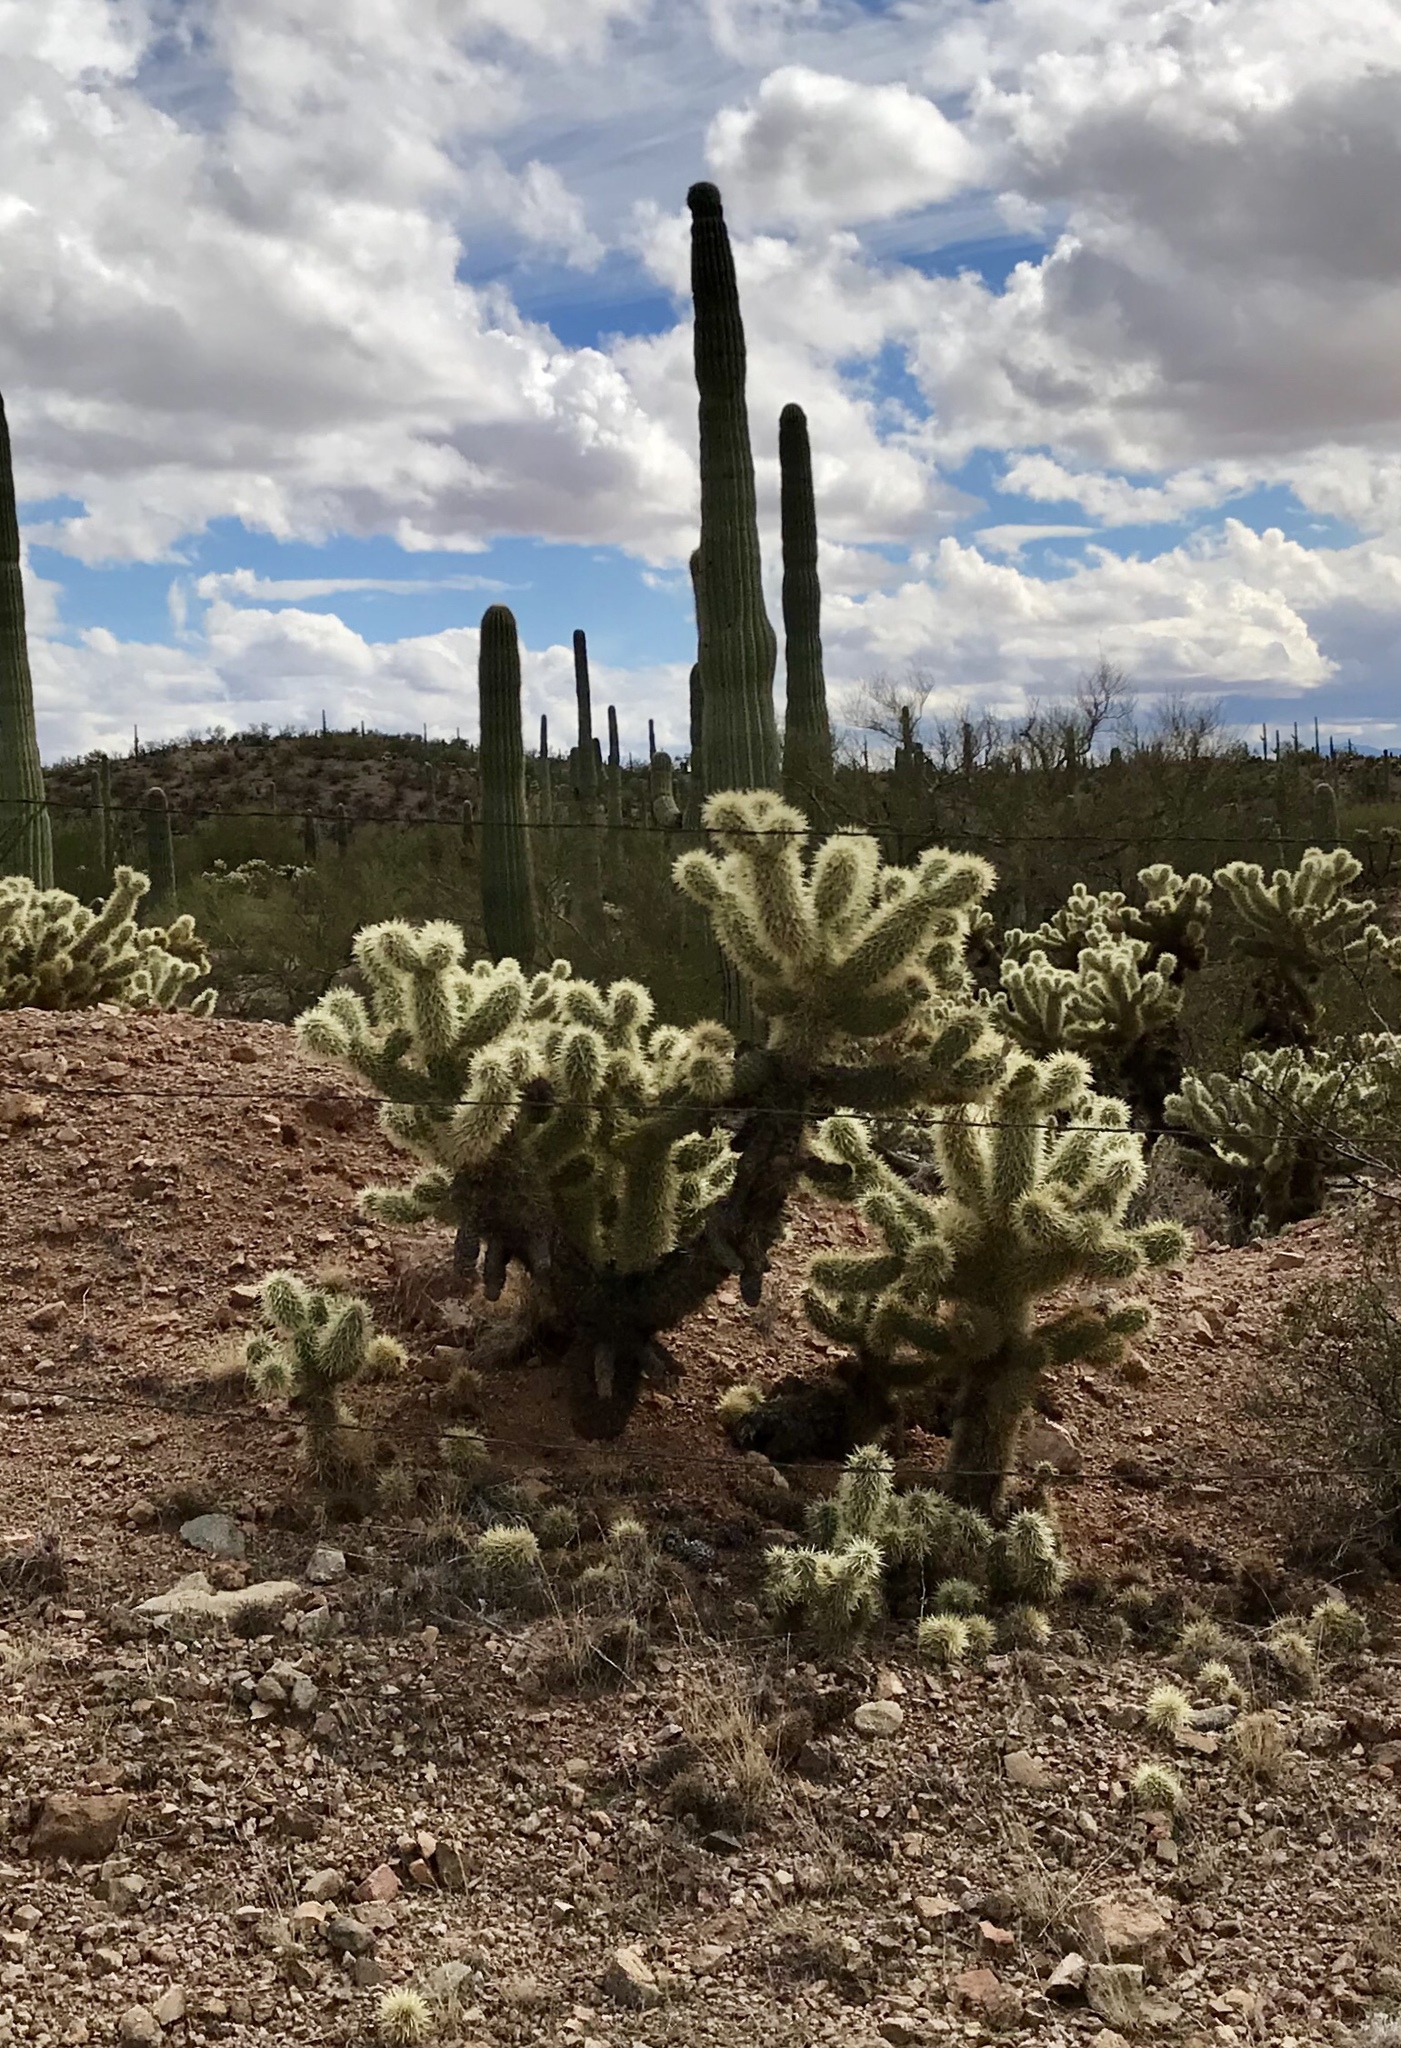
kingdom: Plantae
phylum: Tracheophyta
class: Magnoliopsida
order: Caryophyllales
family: Cactaceae
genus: Cylindropuntia
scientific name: Cylindropuntia fosbergii
